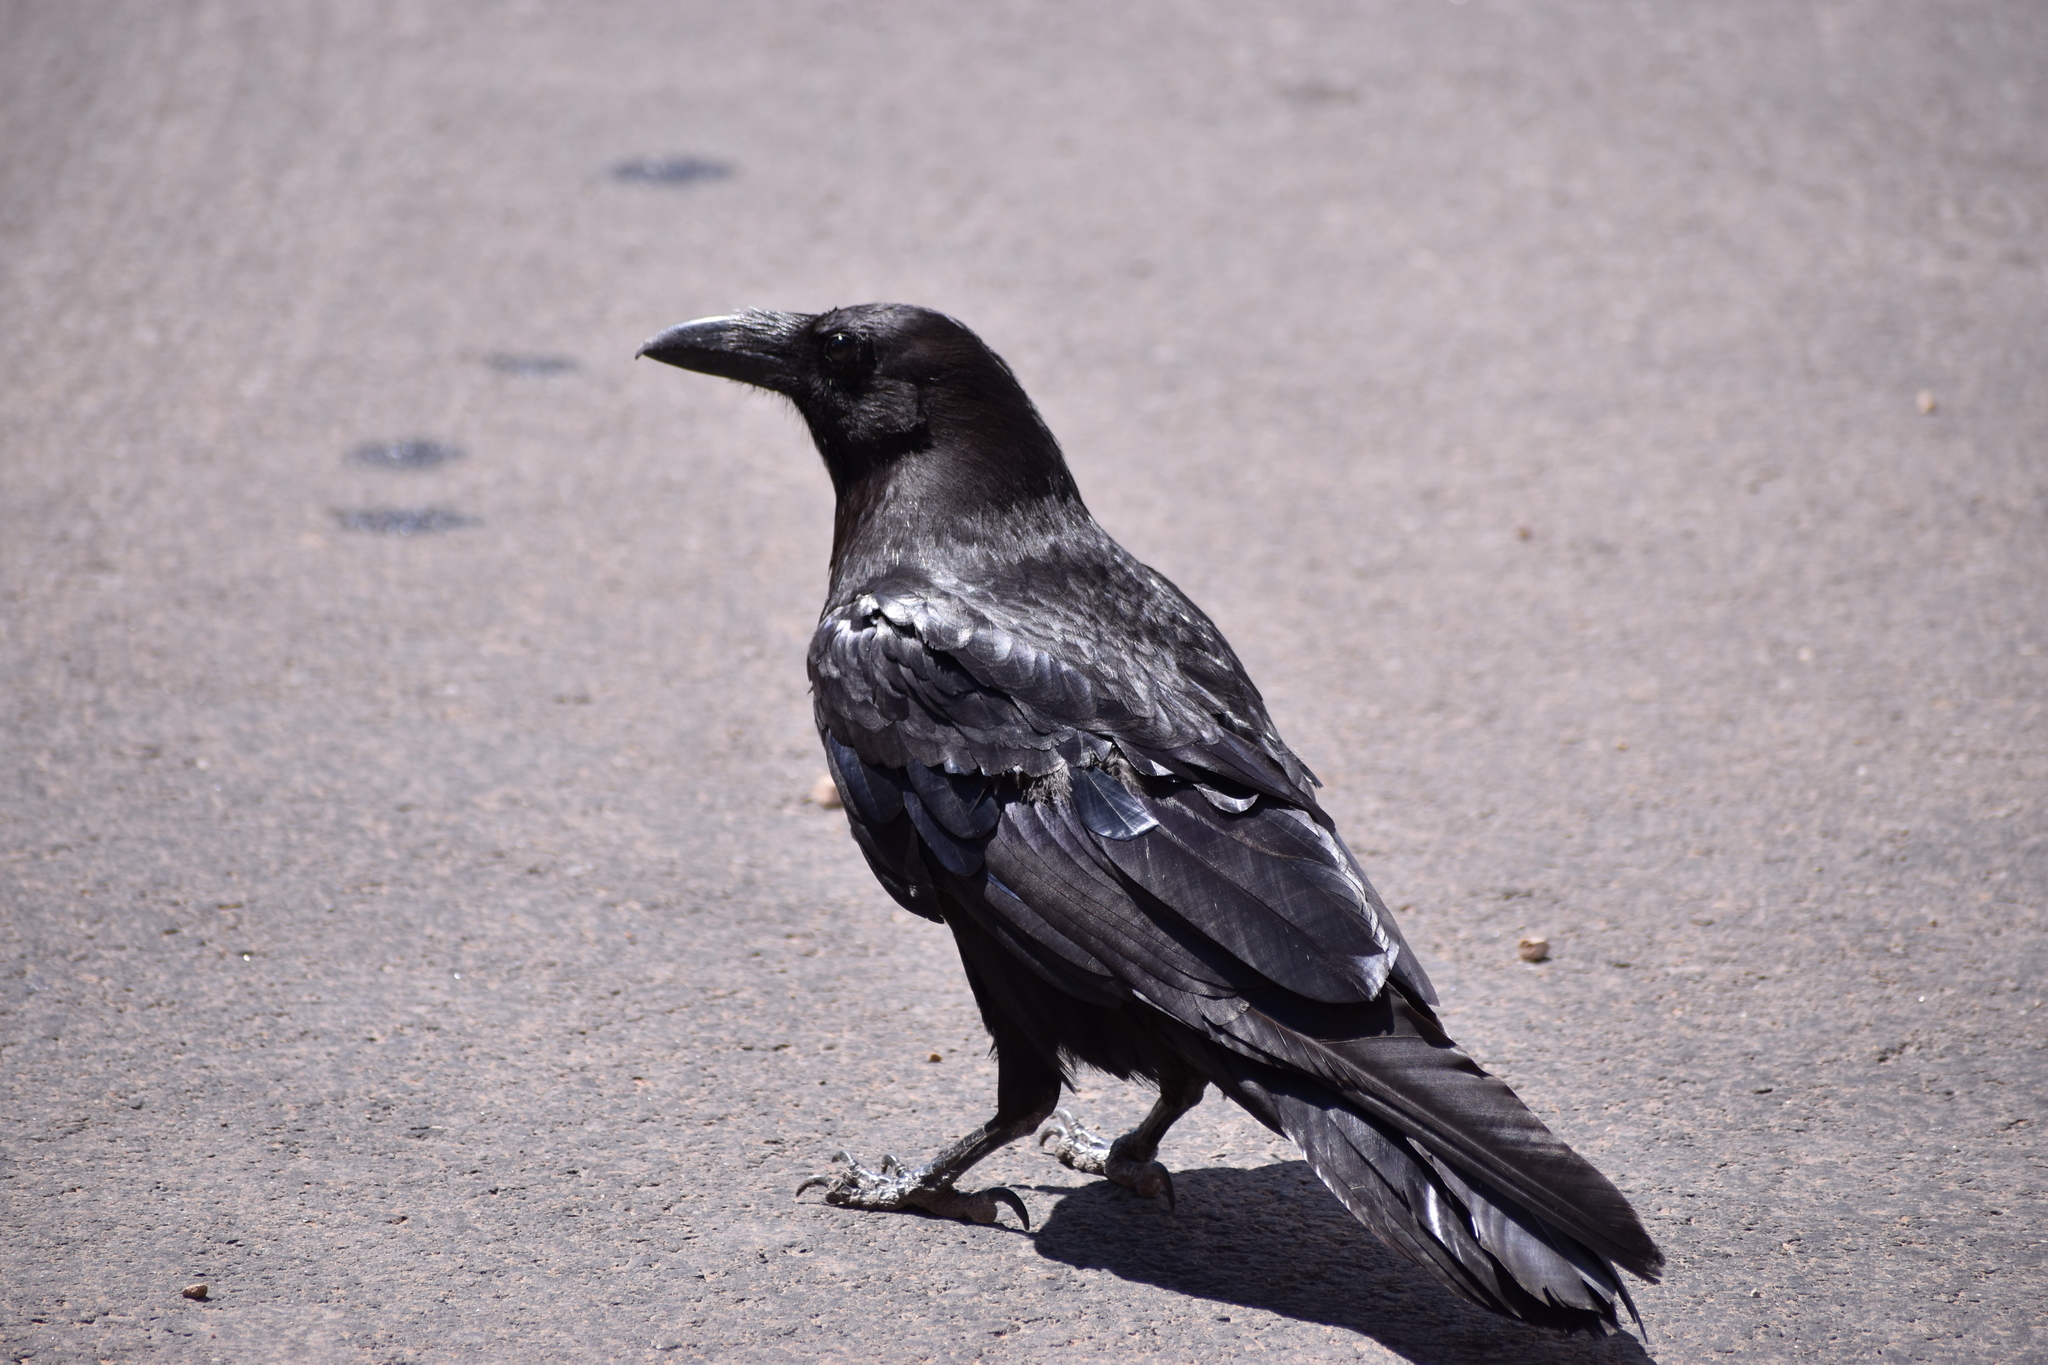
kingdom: Animalia
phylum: Chordata
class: Aves
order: Passeriformes
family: Corvidae
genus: Corvus
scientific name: Corvus corax
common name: Common raven
